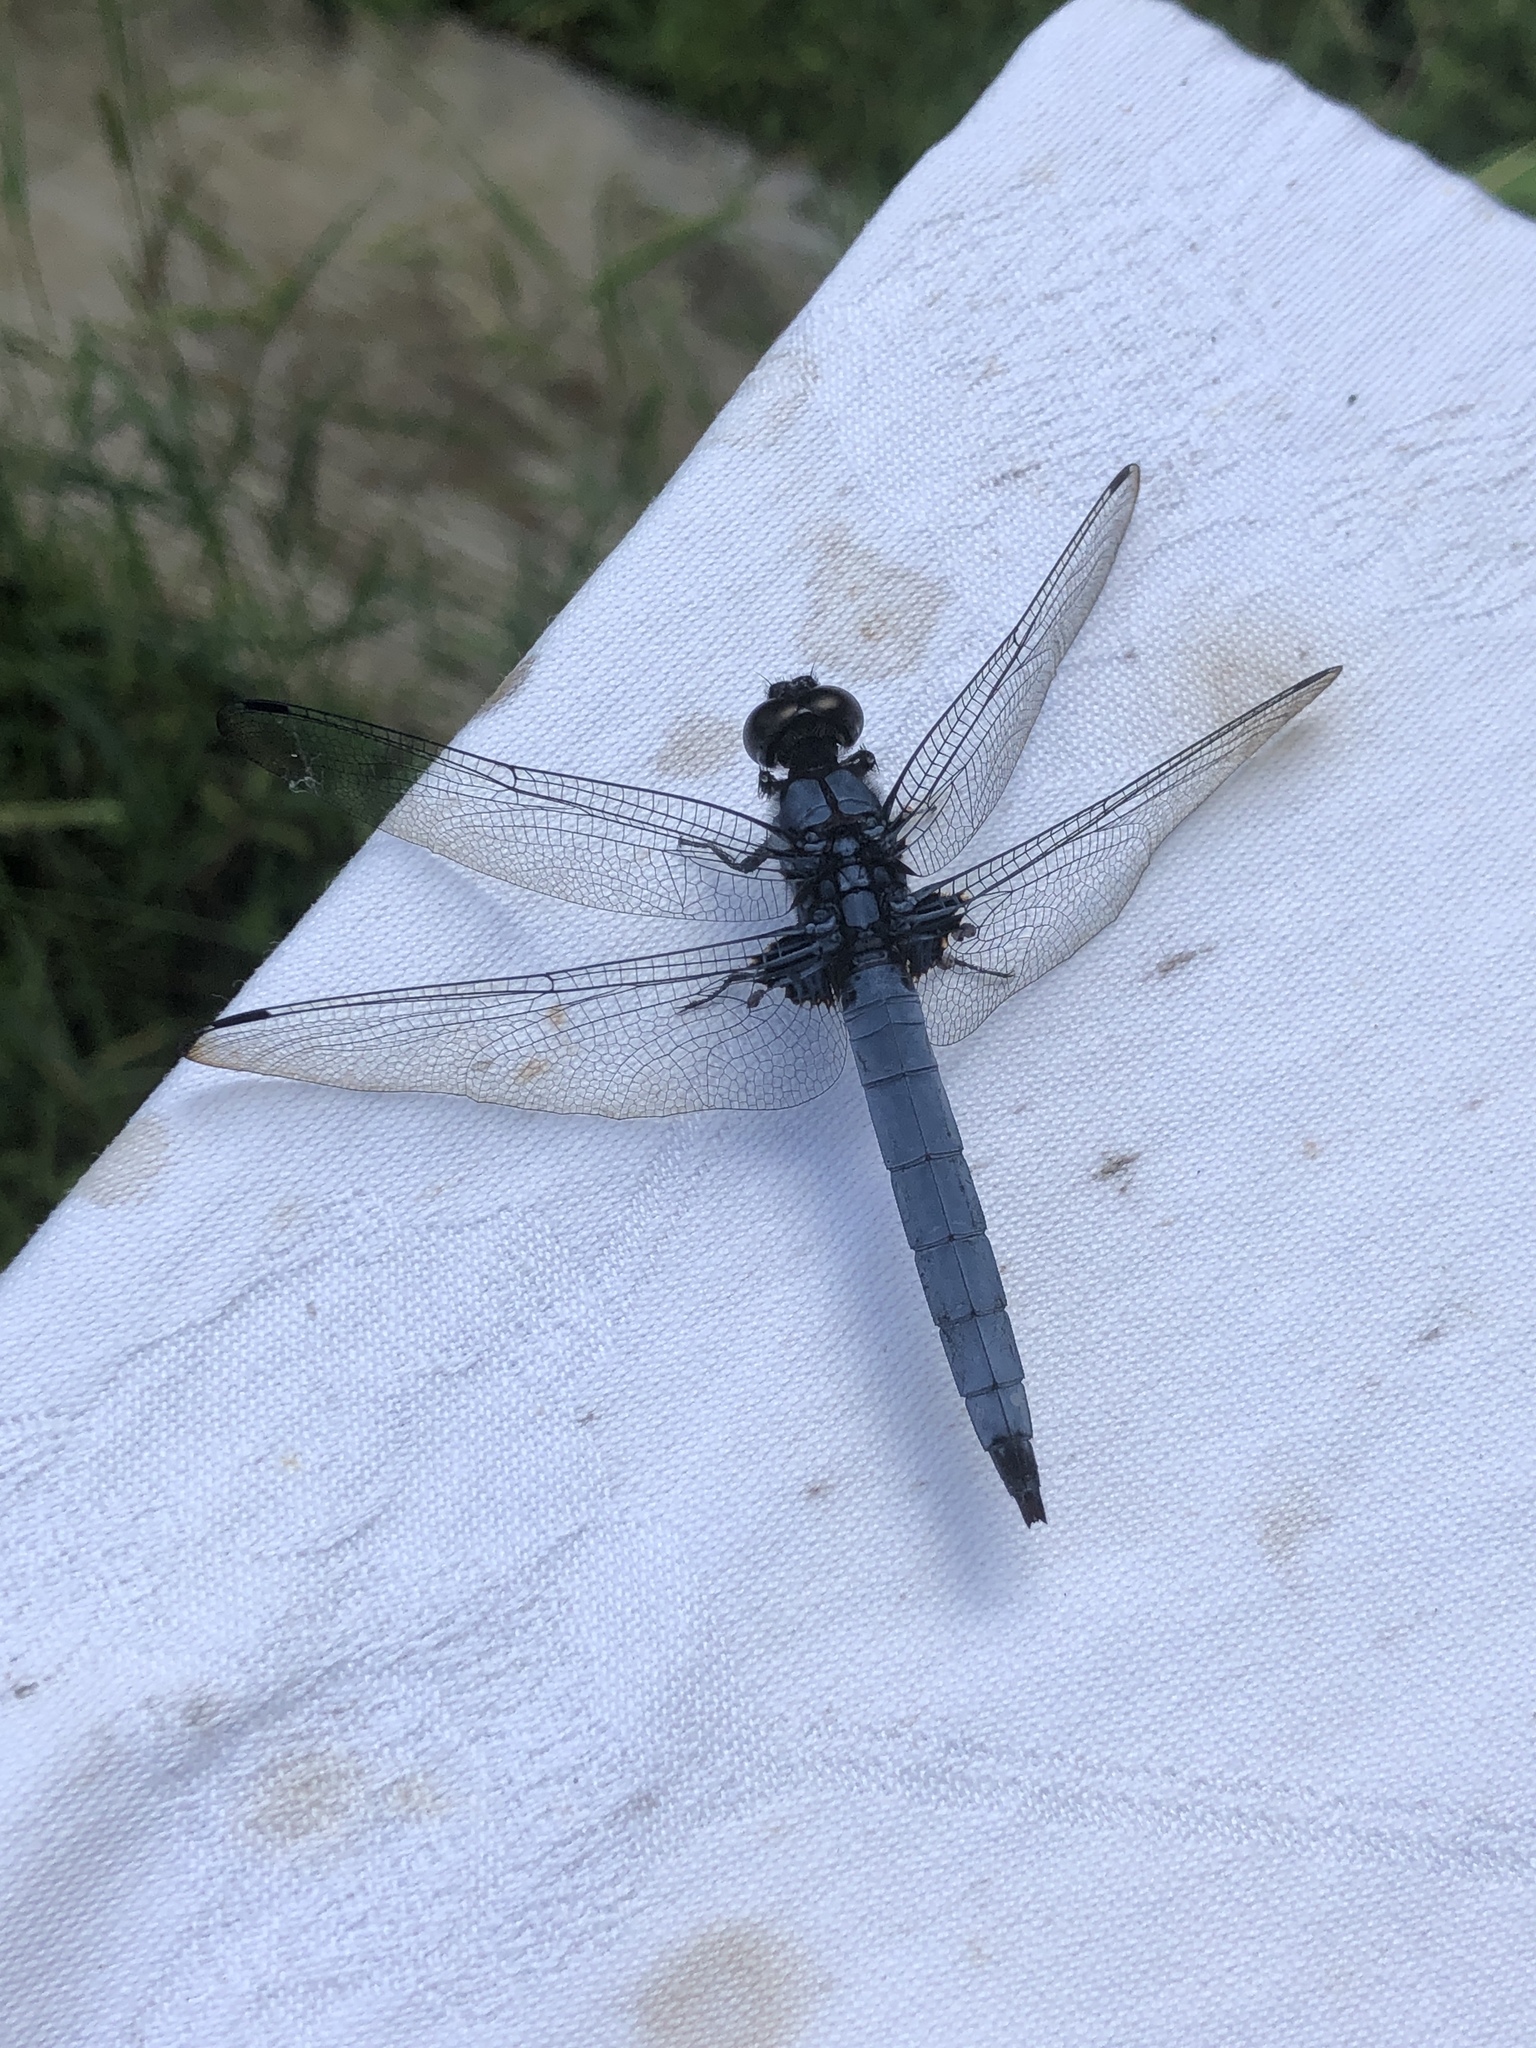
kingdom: Animalia
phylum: Arthropoda
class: Insecta
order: Odonata
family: Libellulidae
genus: Orthetrum
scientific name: Orthetrum melania
